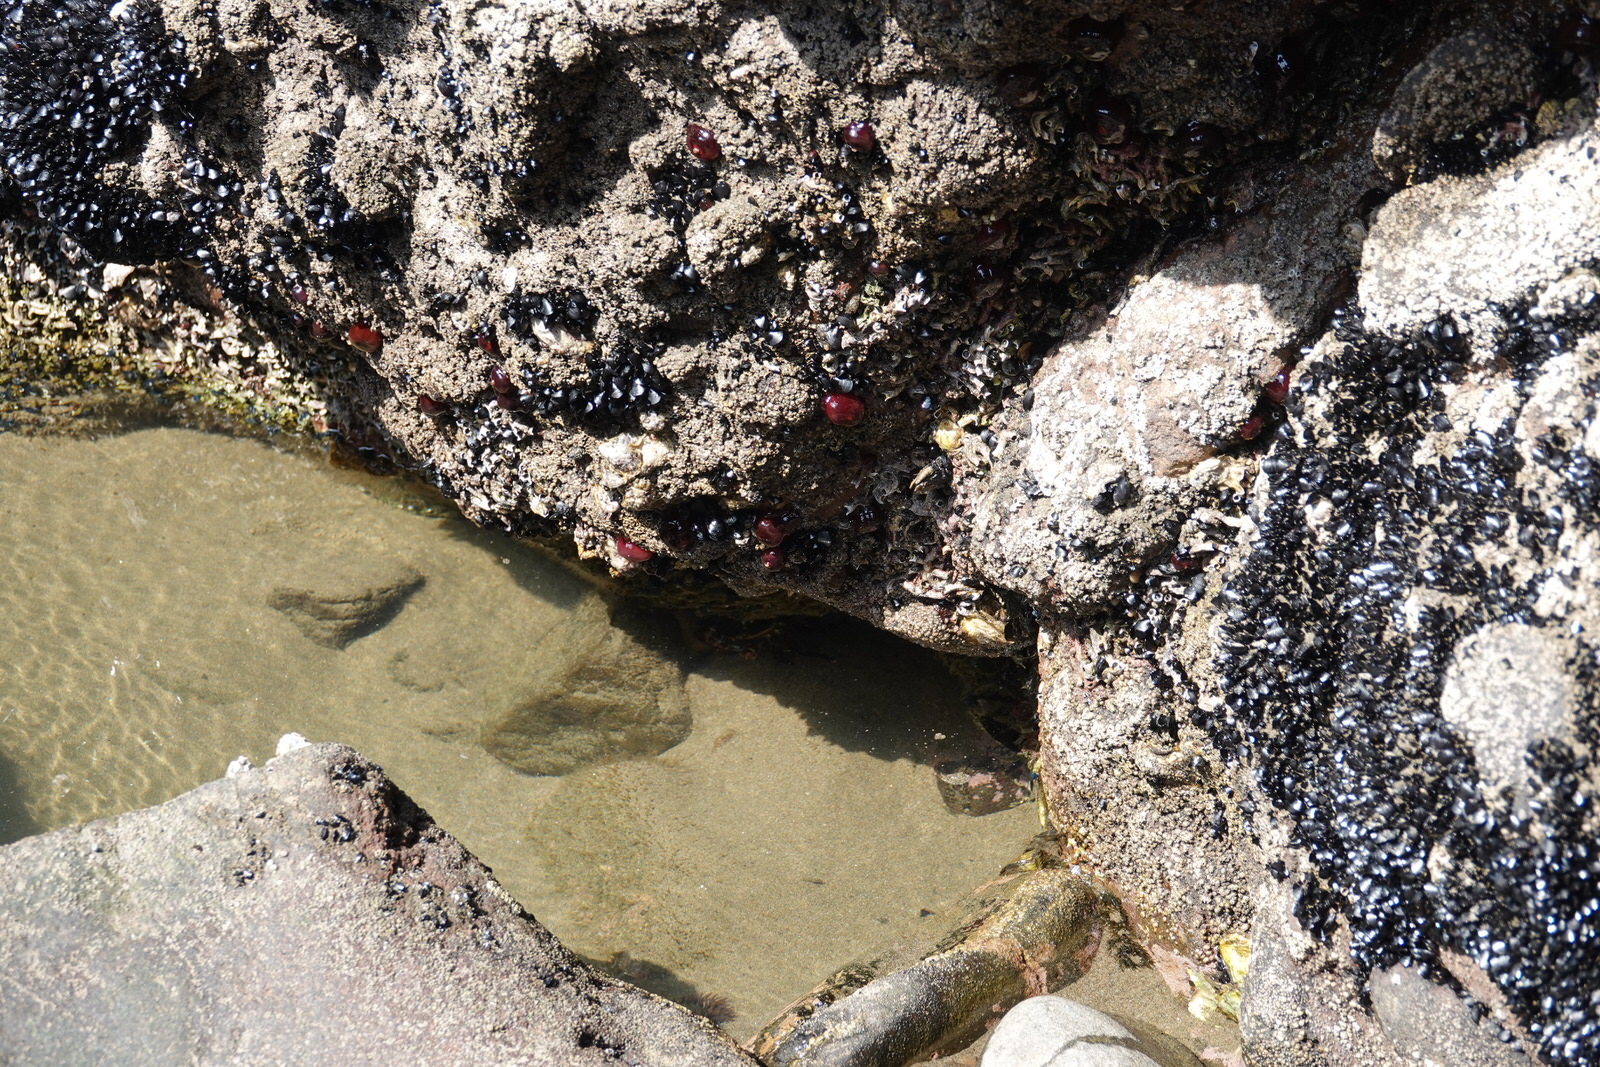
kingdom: Animalia
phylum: Cnidaria
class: Anthozoa
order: Actiniaria
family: Actiniidae
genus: Actinia
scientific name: Actinia tenebrosa
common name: Waratah anemone
